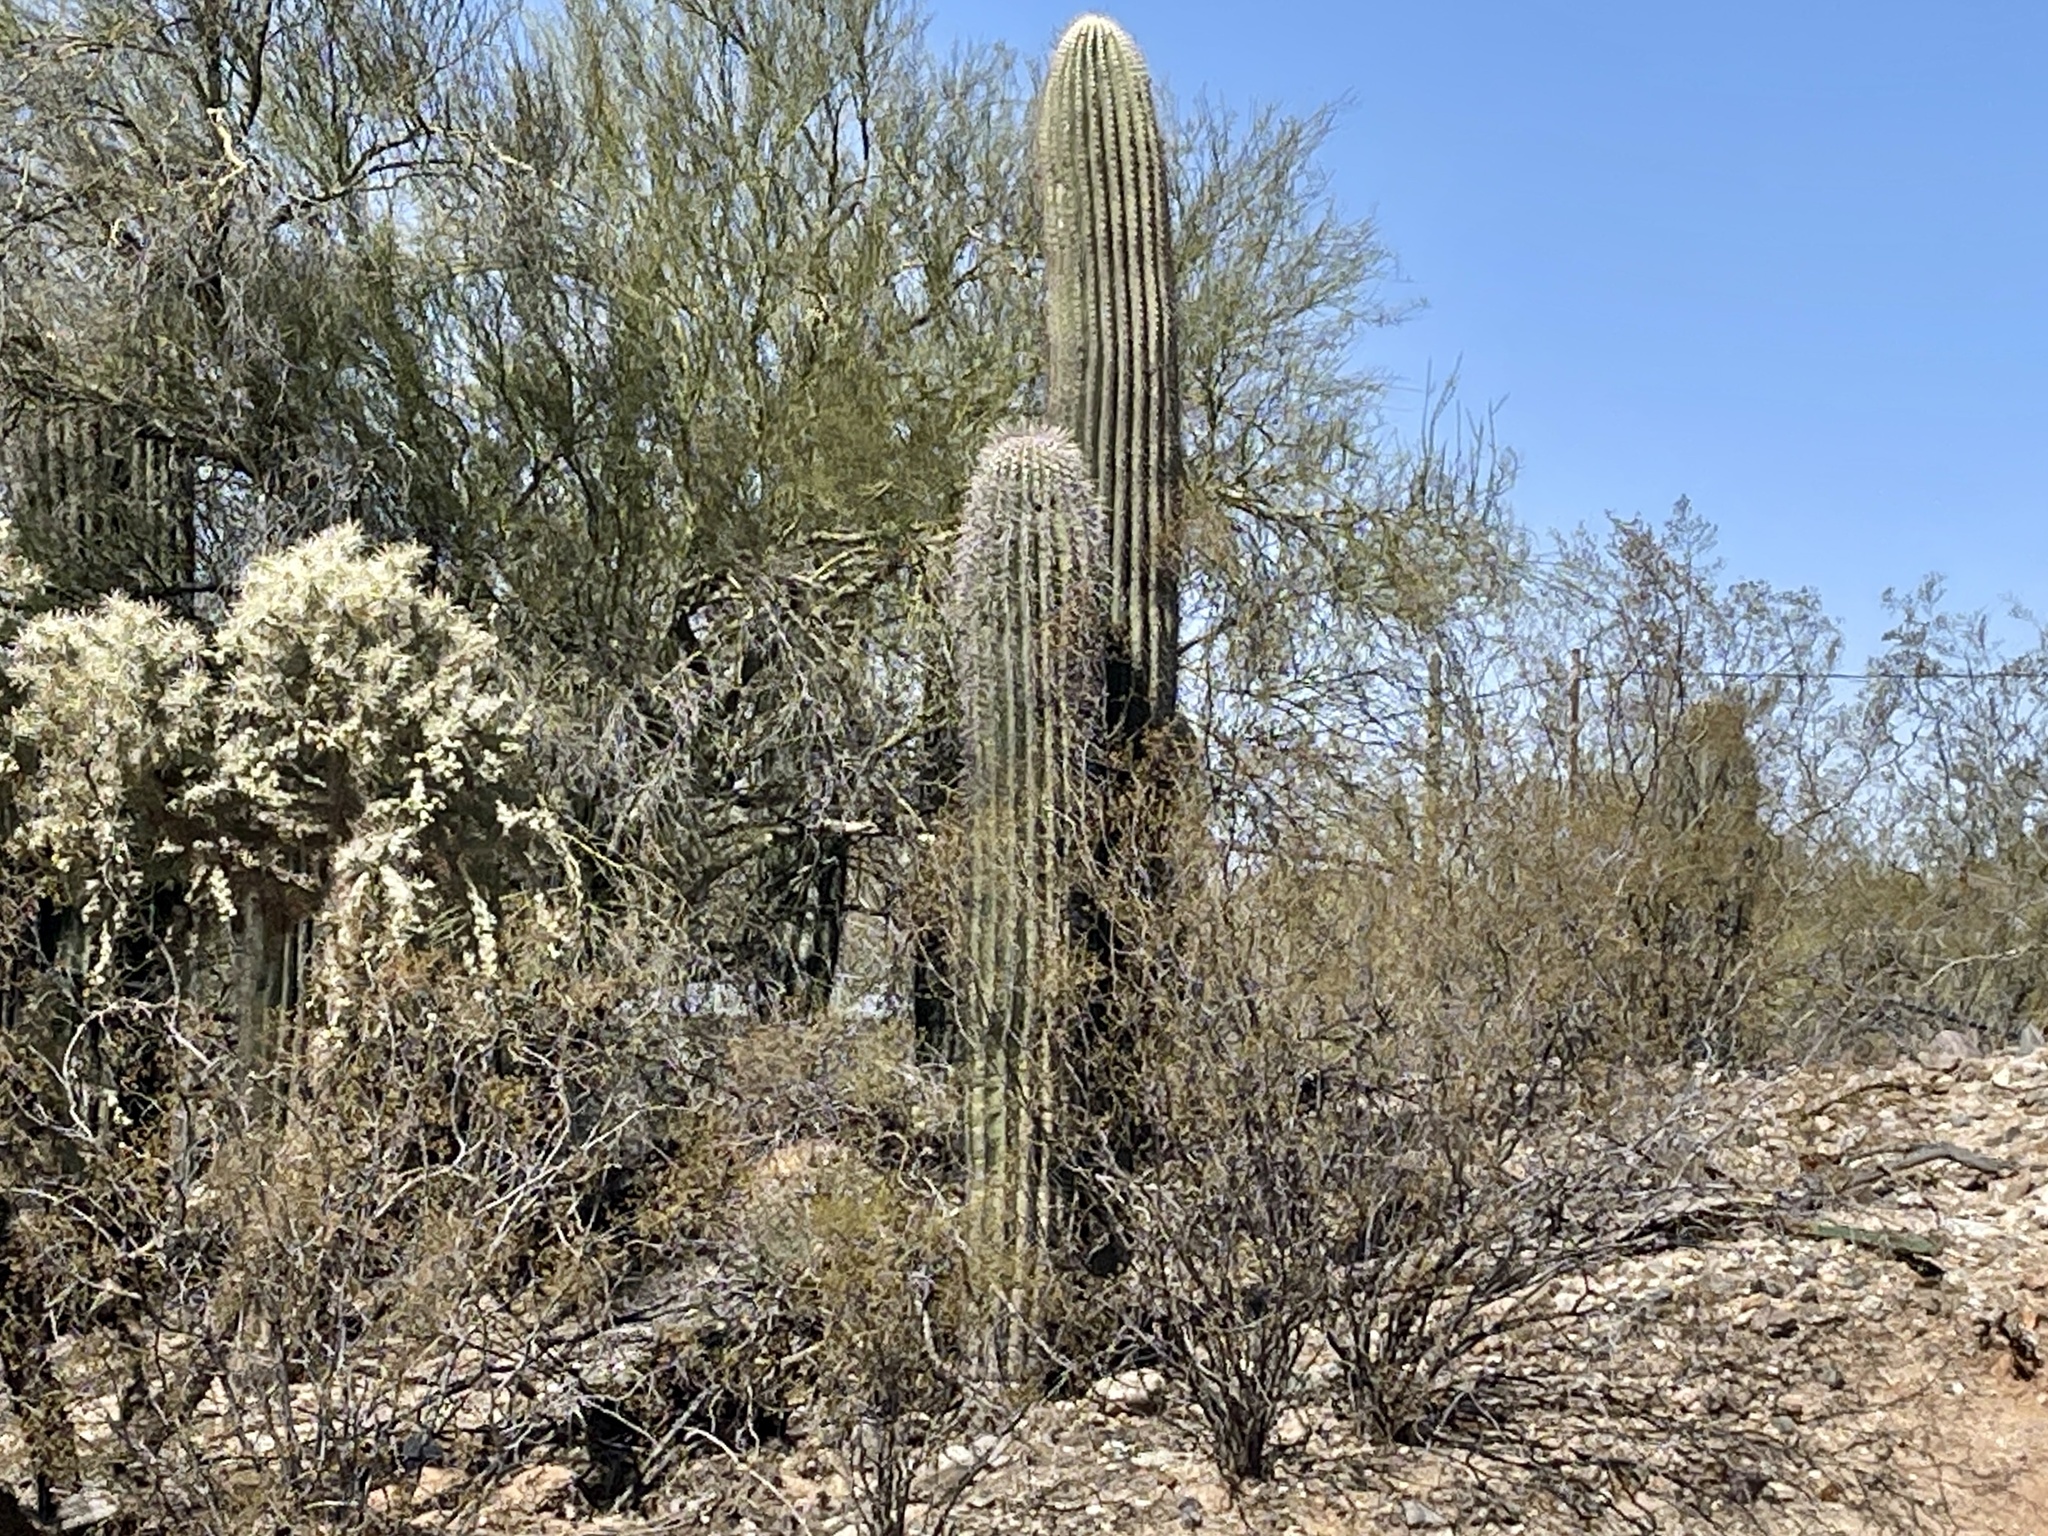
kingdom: Plantae
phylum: Tracheophyta
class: Magnoliopsida
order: Caryophyllales
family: Cactaceae
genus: Carnegiea
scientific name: Carnegiea gigantea
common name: Saguaro
